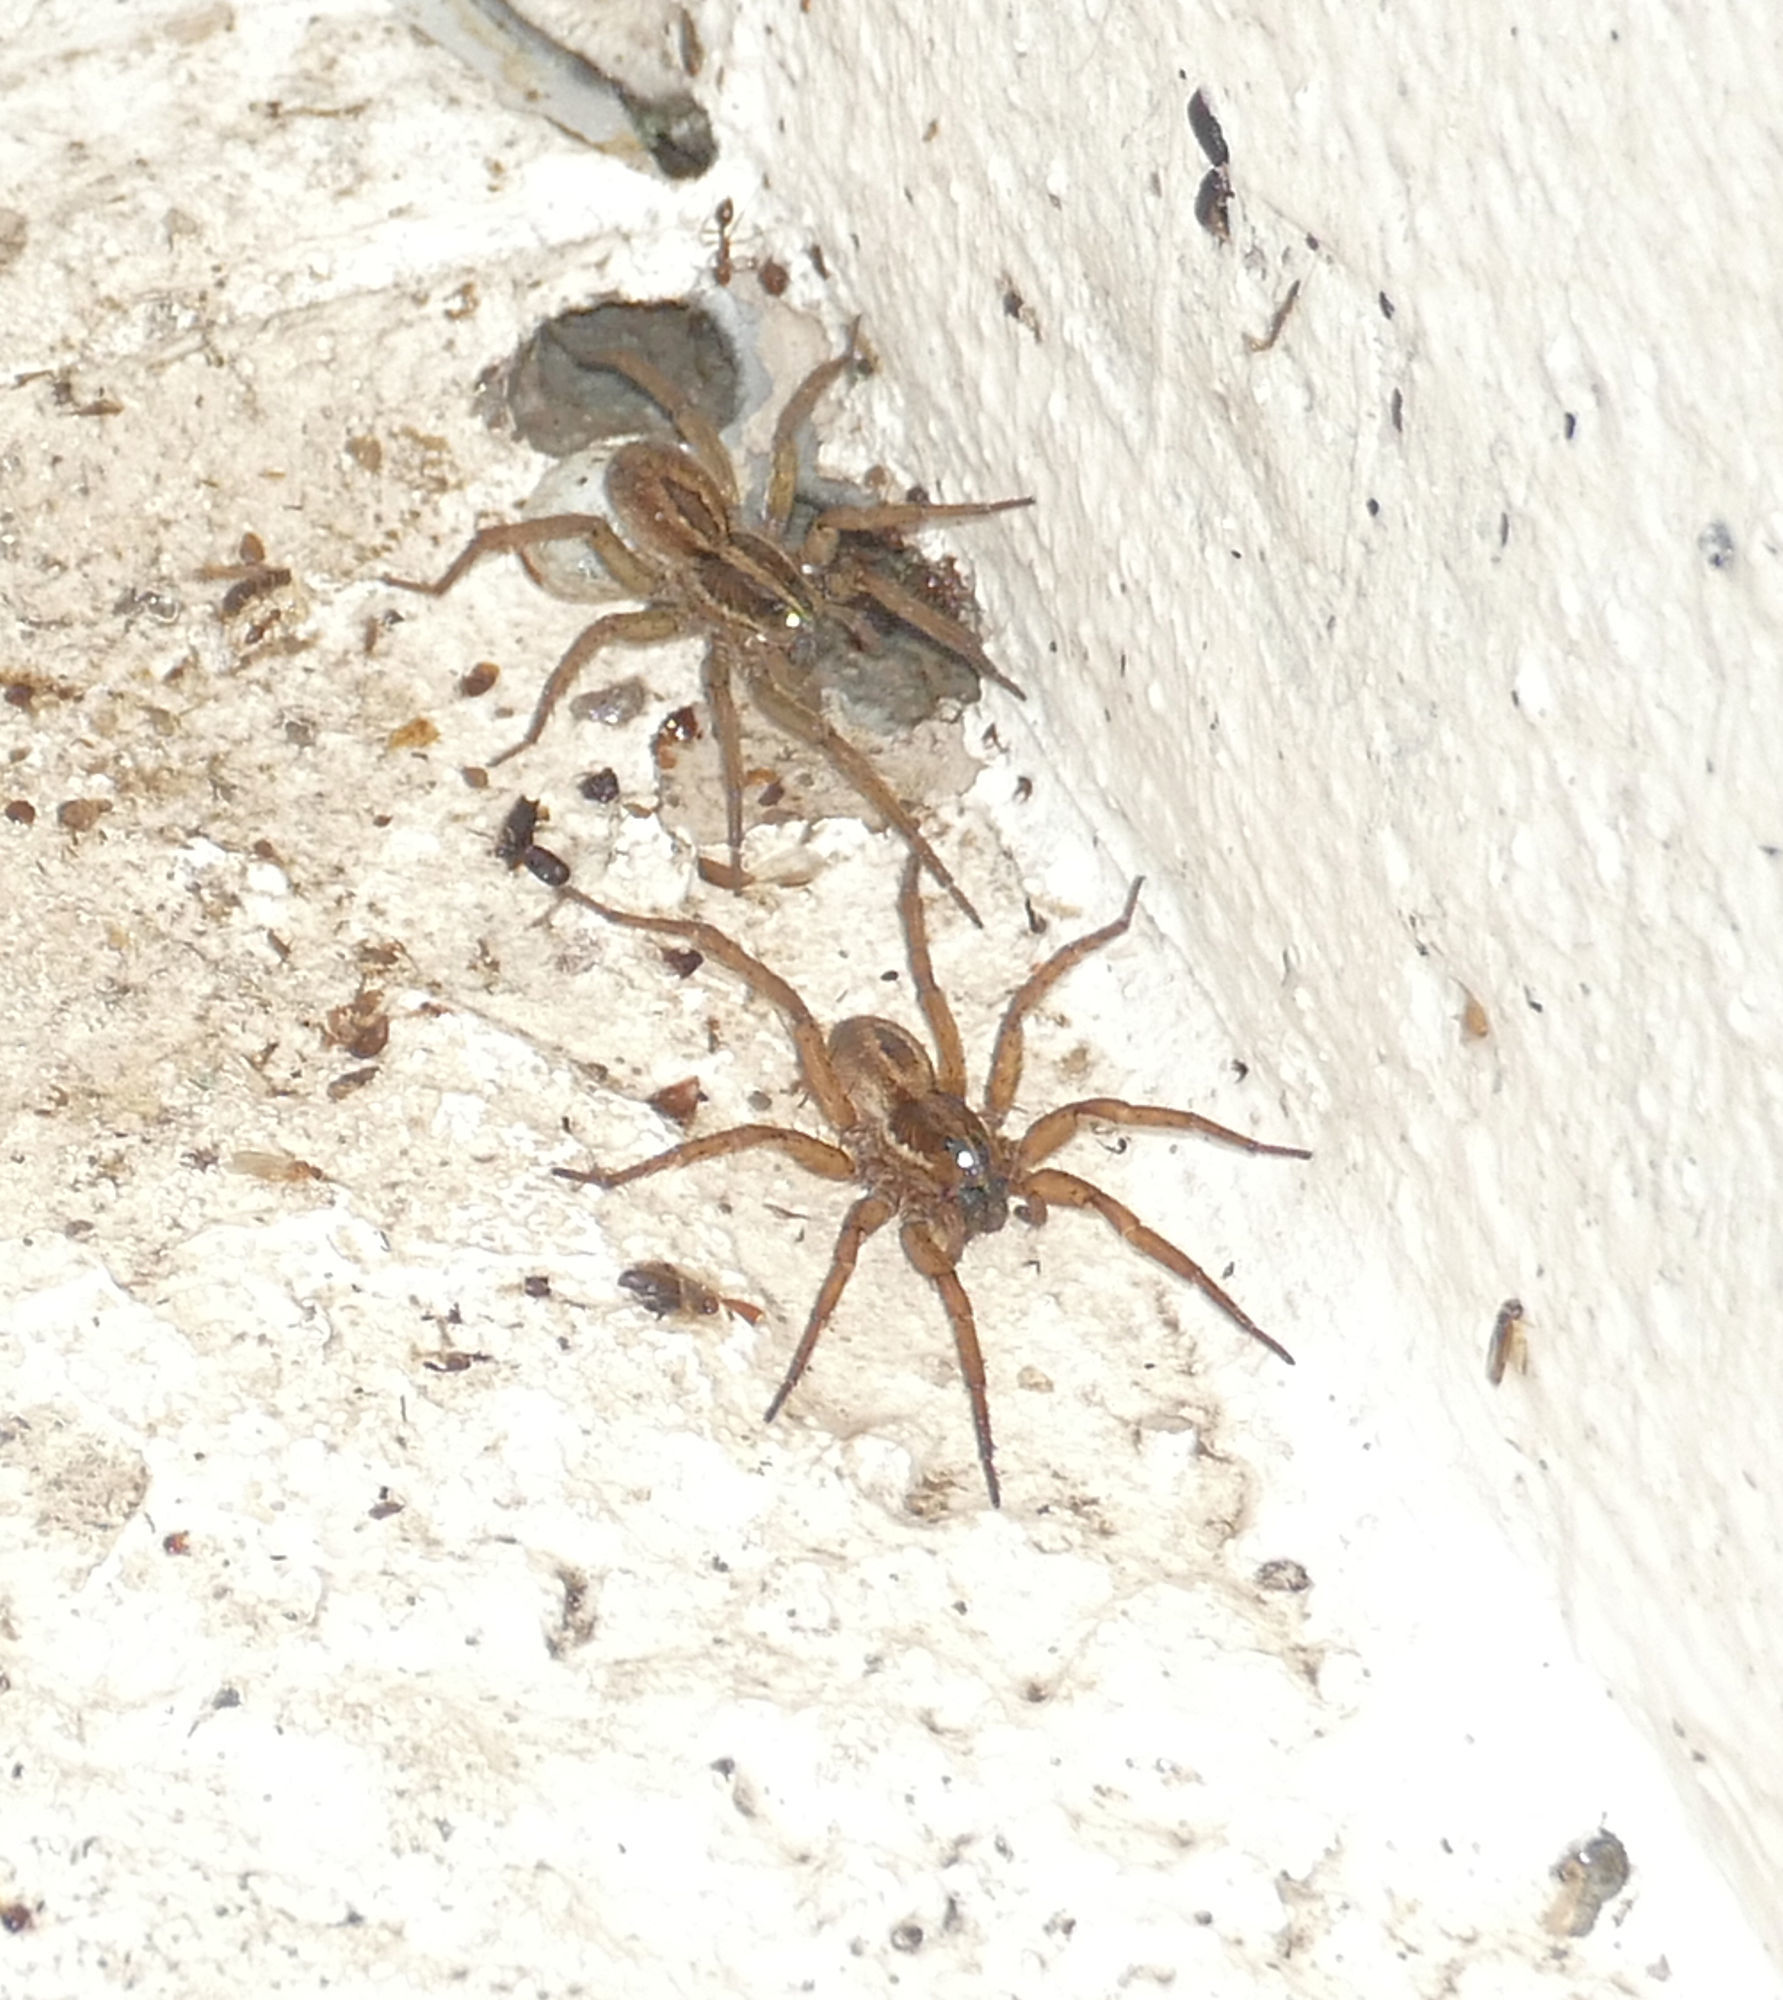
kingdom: Animalia
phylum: Arthropoda
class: Arachnida
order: Araneae
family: Lycosidae
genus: Tigrosa
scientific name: Tigrosa annexa
